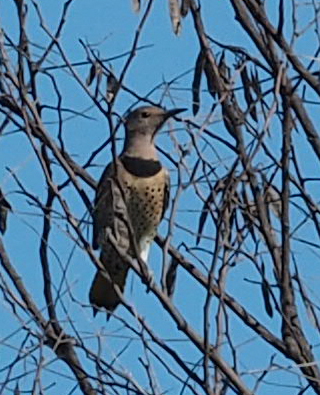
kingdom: Animalia
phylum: Chordata
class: Aves
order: Piciformes
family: Picidae
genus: Colaptes
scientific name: Colaptes auratus
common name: Northern flicker
